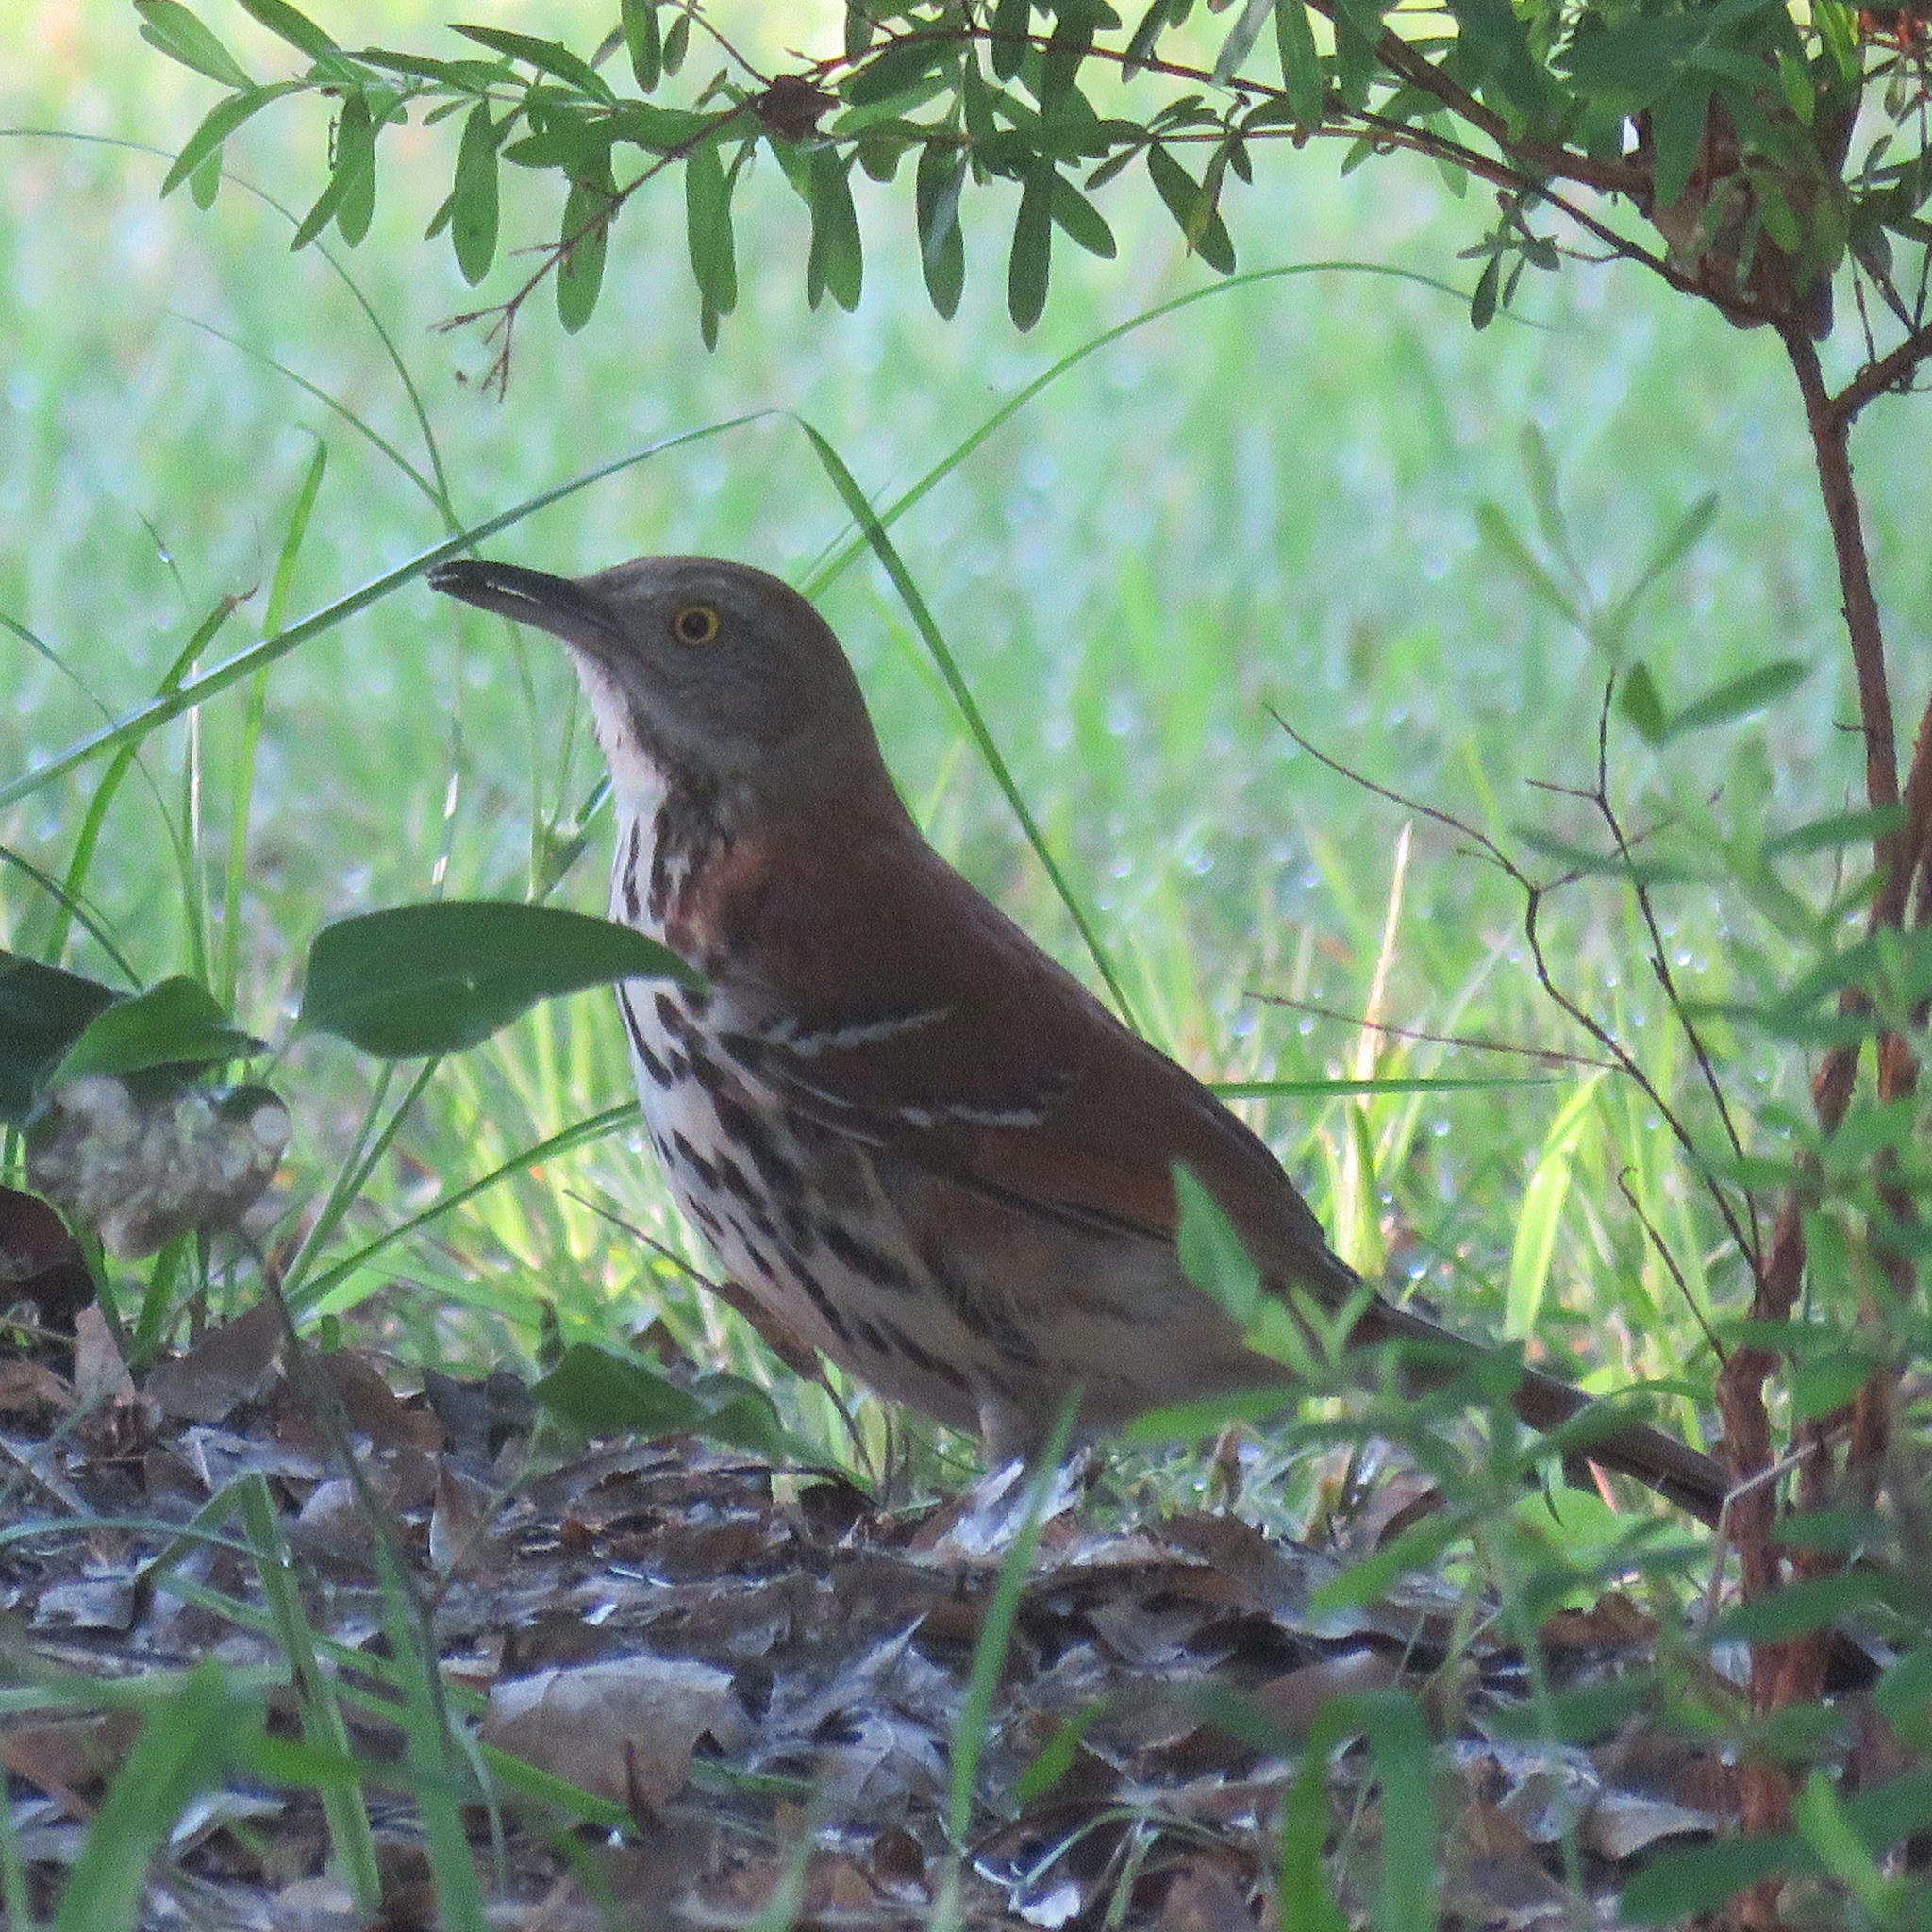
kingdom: Animalia
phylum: Chordata
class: Aves
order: Passeriformes
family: Mimidae
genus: Toxostoma
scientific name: Toxostoma rufum
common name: Brown thrasher
